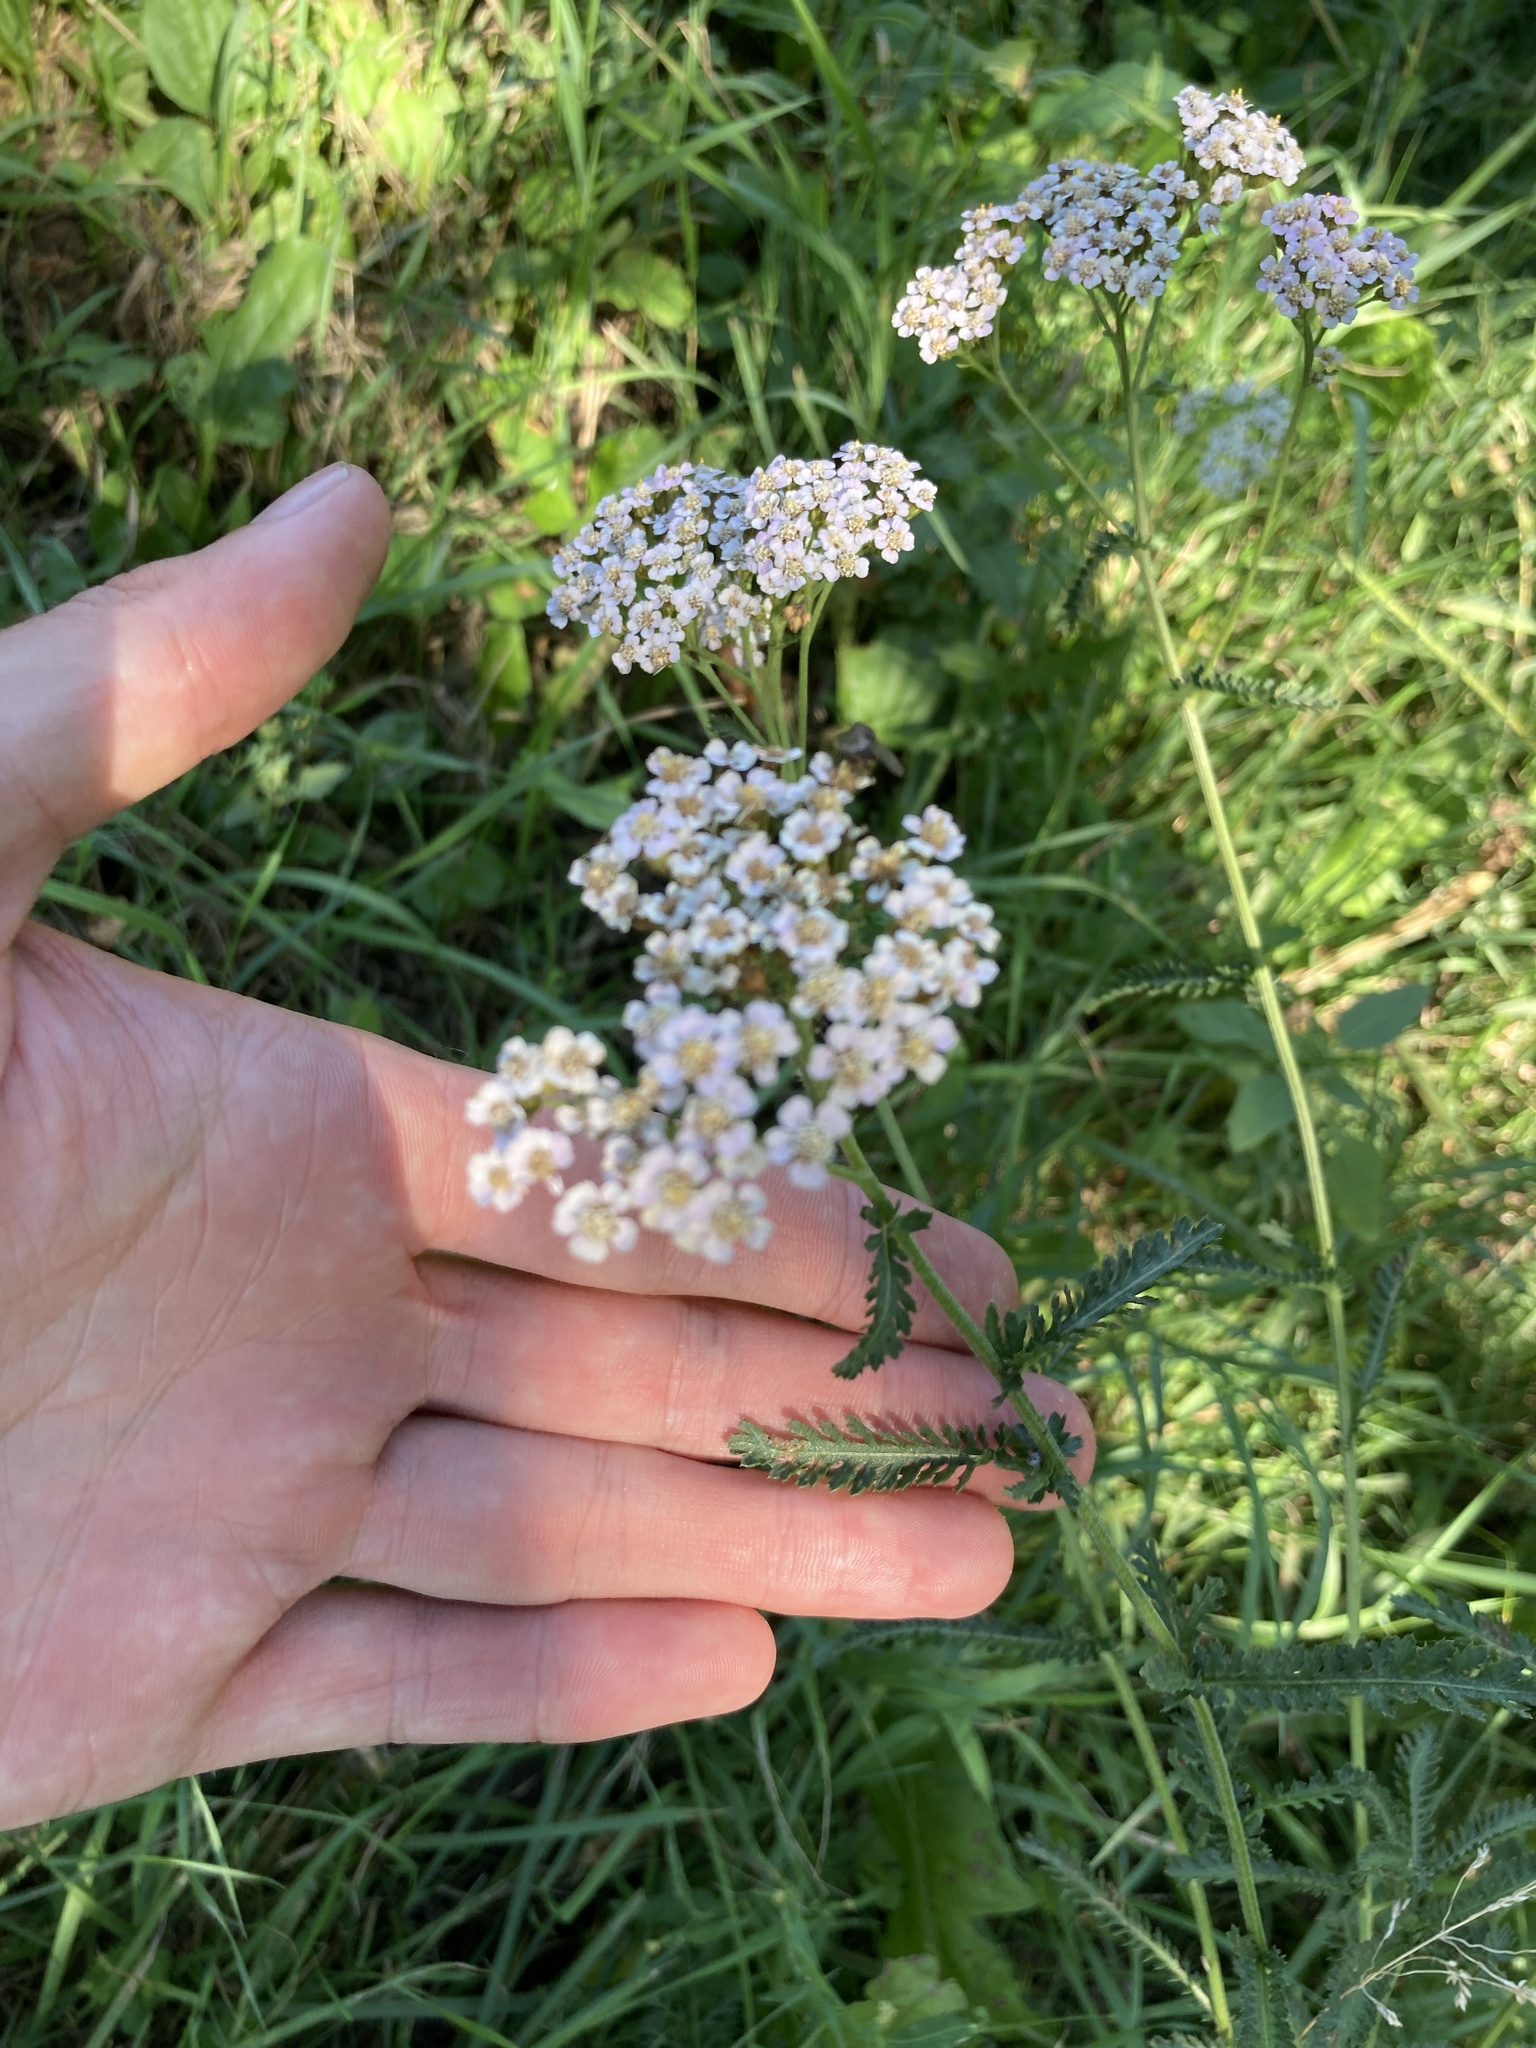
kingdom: Plantae
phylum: Tracheophyta
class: Magnoliopsida
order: Asterales
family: Asteraceae
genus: Achillea
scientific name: Achillea millefolium
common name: Yarrow
